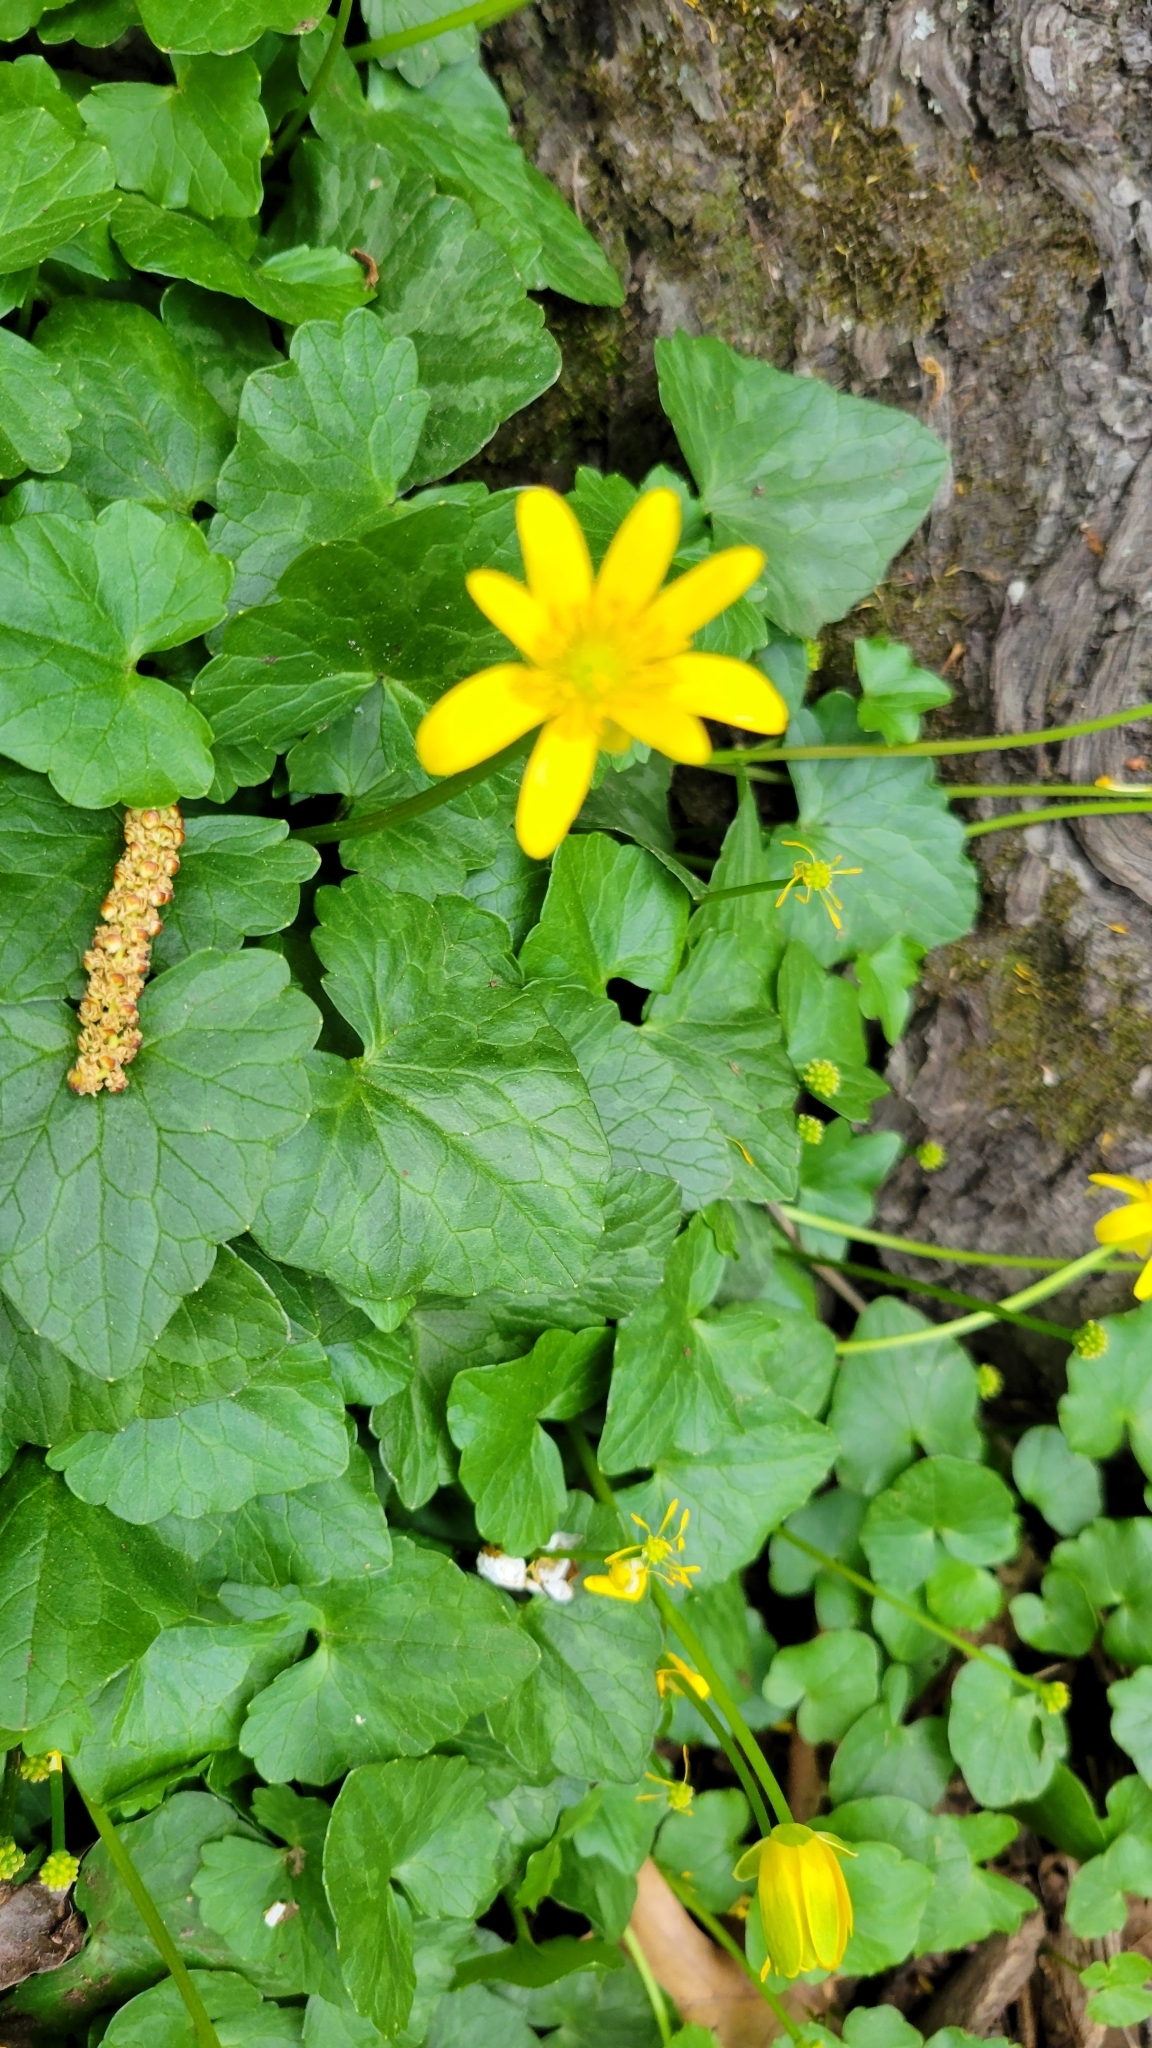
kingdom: Plantae
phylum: Tracheophyta
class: Magnoliopsida
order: Ranunculales
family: Ranunculaceae
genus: Ficaria
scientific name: Ficaria verna
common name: Lesser celandine
